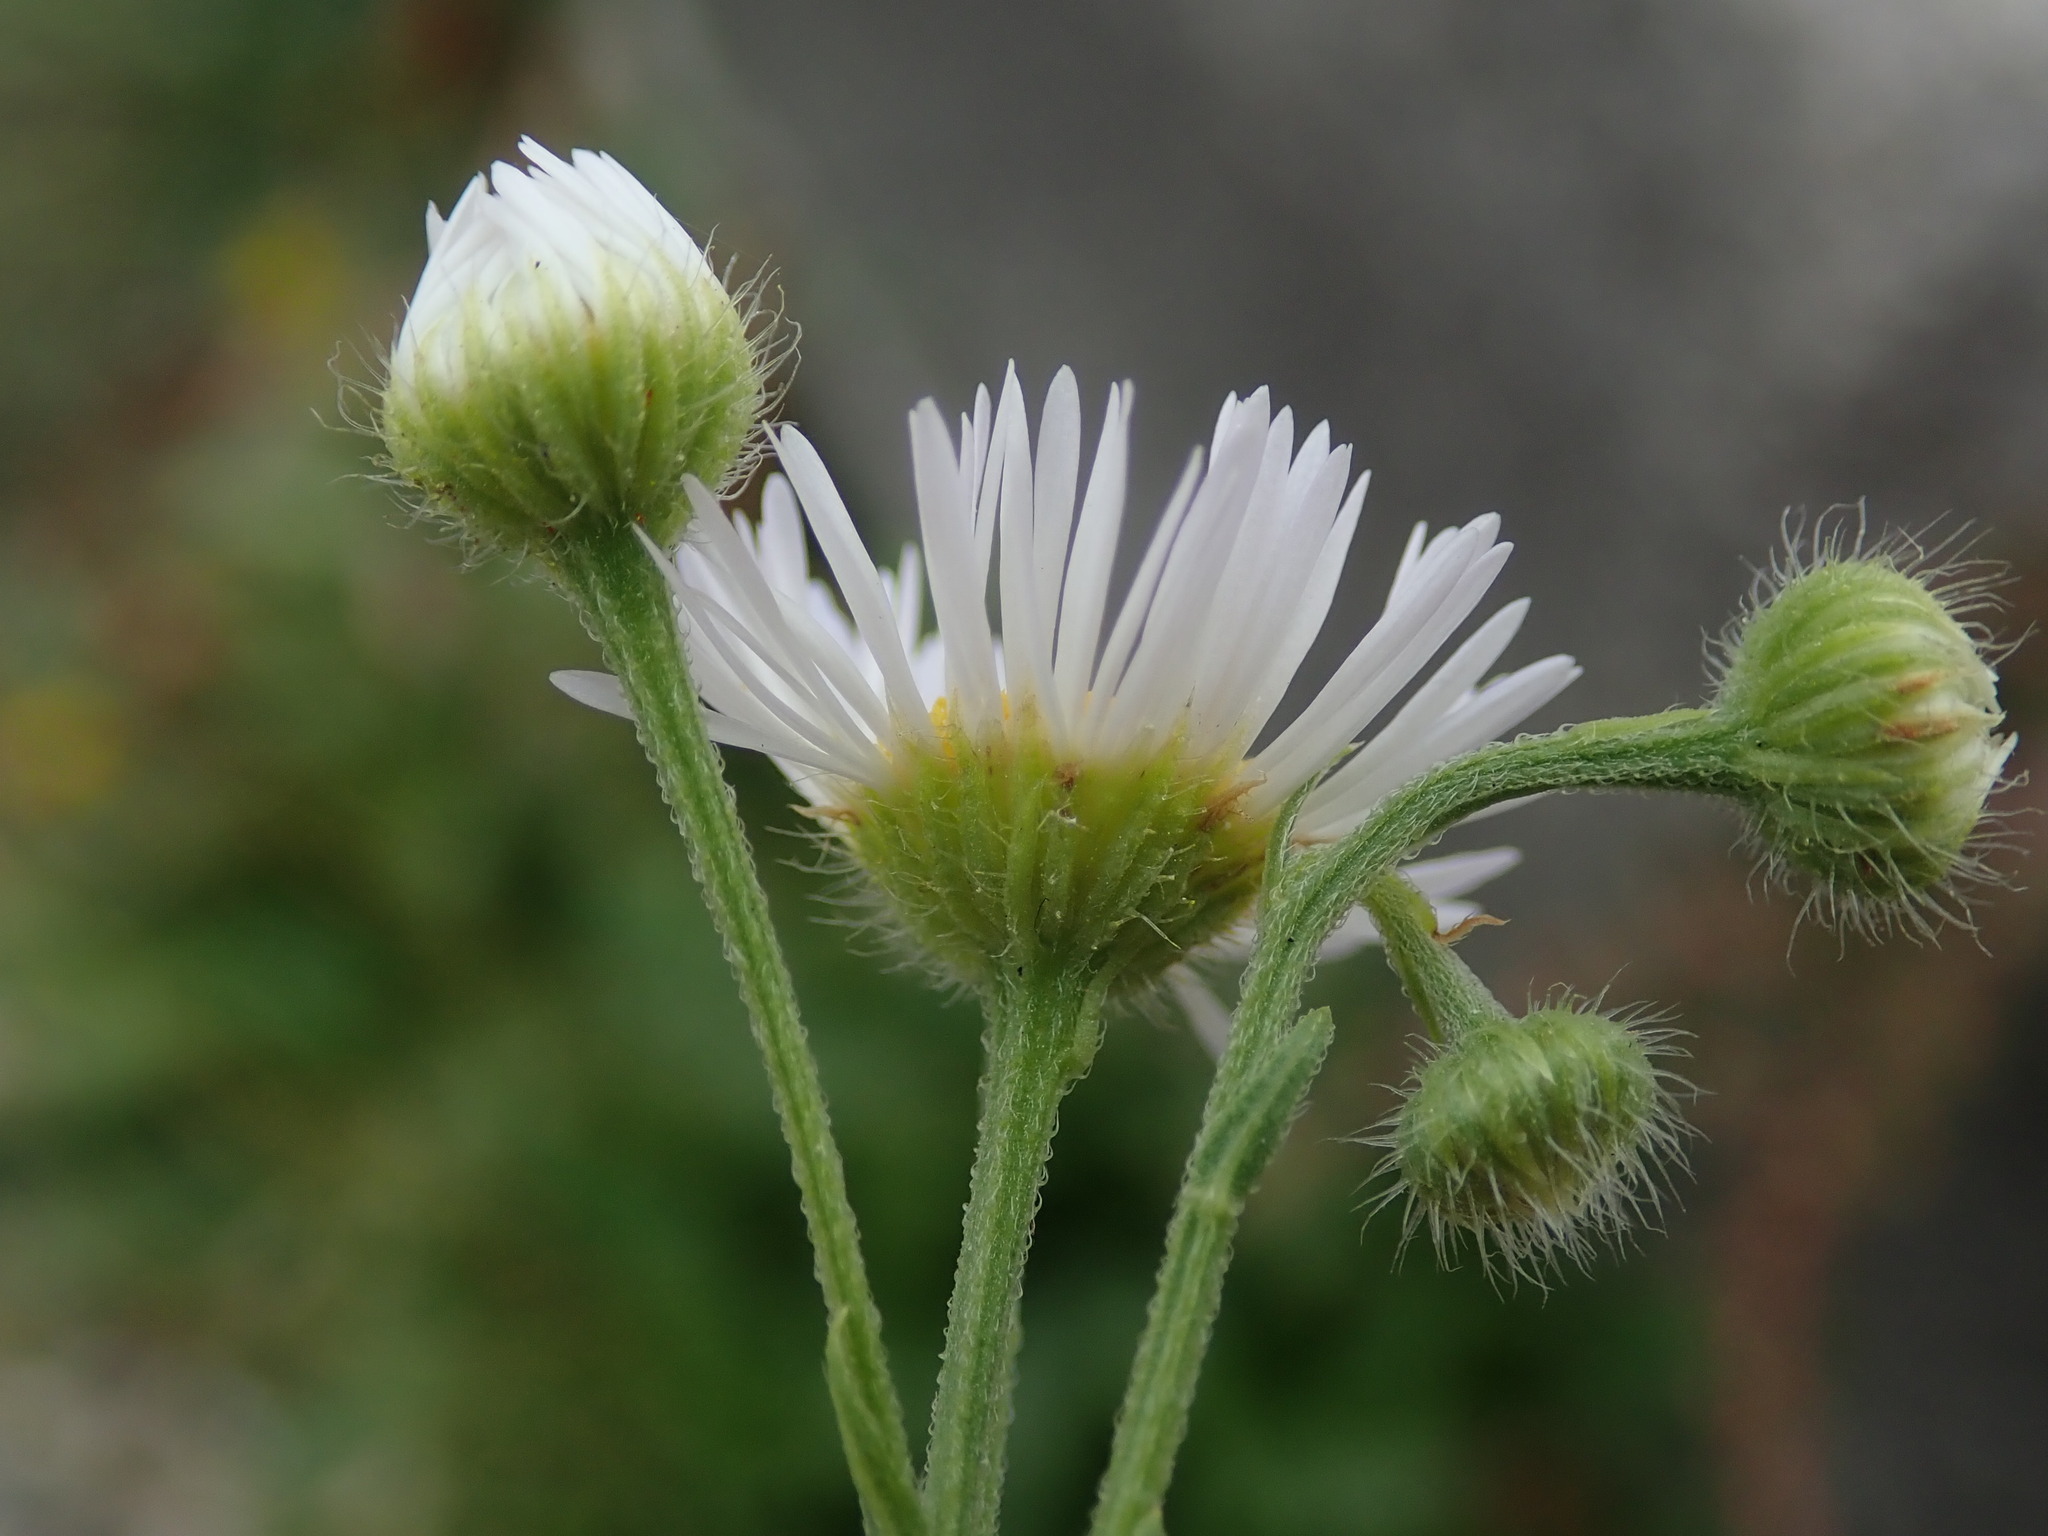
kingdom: Plantae
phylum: Tracheophyta
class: Magnoliopsida
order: Asterales
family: Asteraceae
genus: Erigeron
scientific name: Erigeron annuus
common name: Tall fleabane
